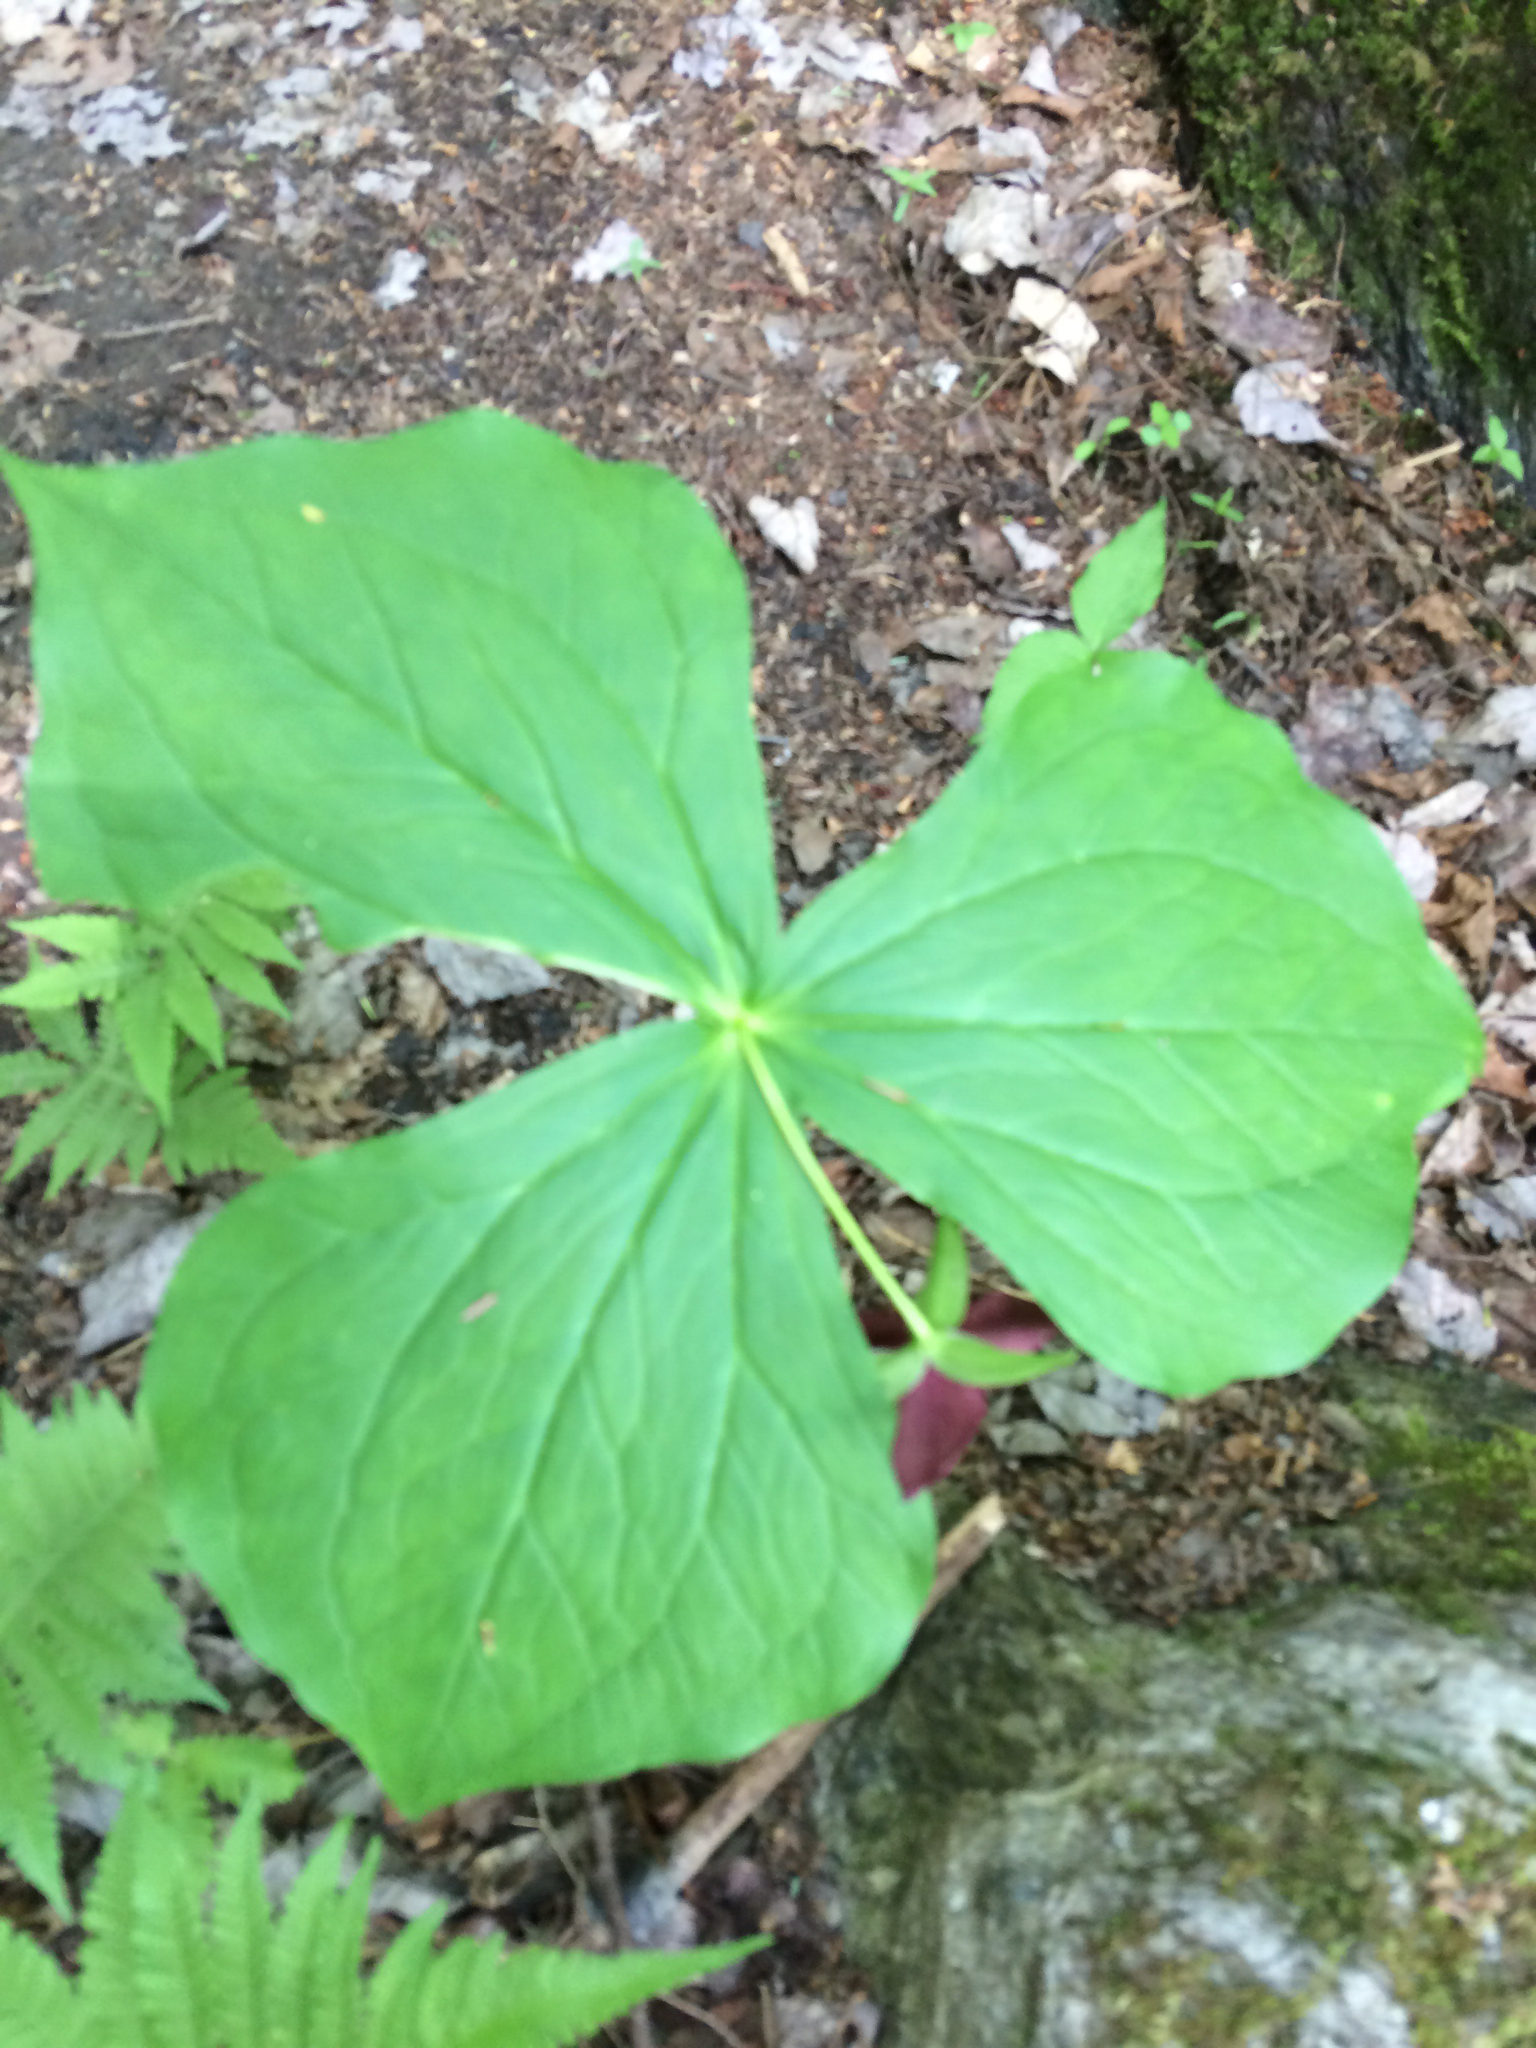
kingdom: Plantae
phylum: Tracheophyta
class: Liliopsida
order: Liliales
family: Melanthiaceae
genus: Trillium
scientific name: Trillium erectum
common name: Purple trillium
